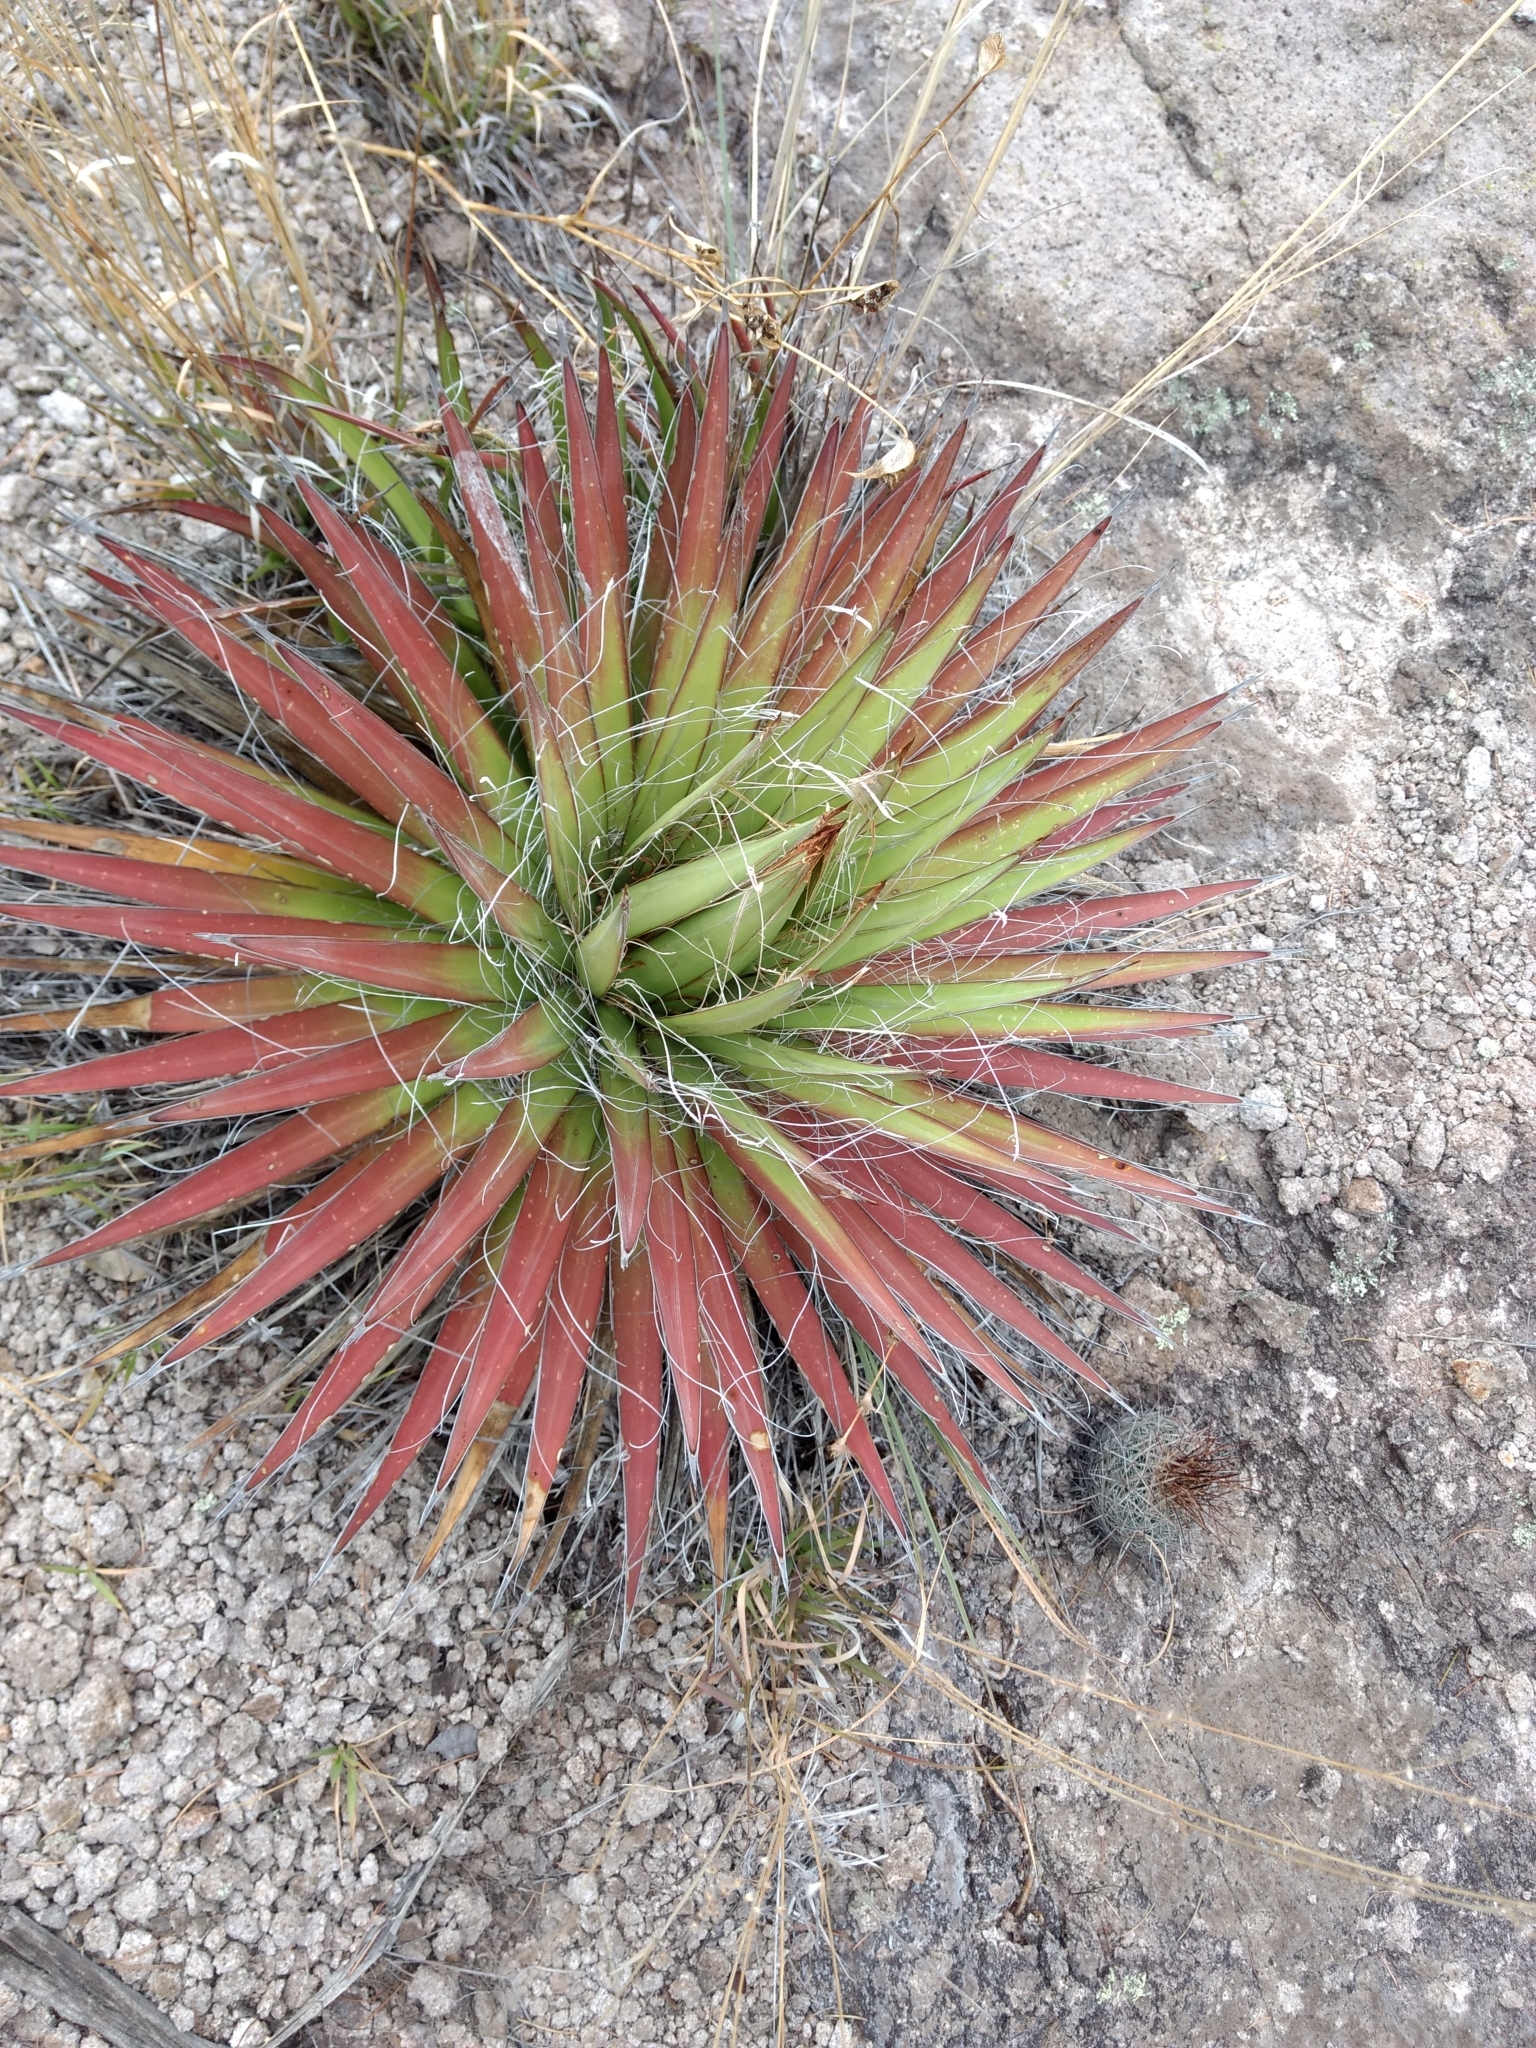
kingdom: Plantae
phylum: Tracheophyta
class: Liliopsida
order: Asparagales
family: Asparagaceae
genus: Agave
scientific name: Agave schidigera
